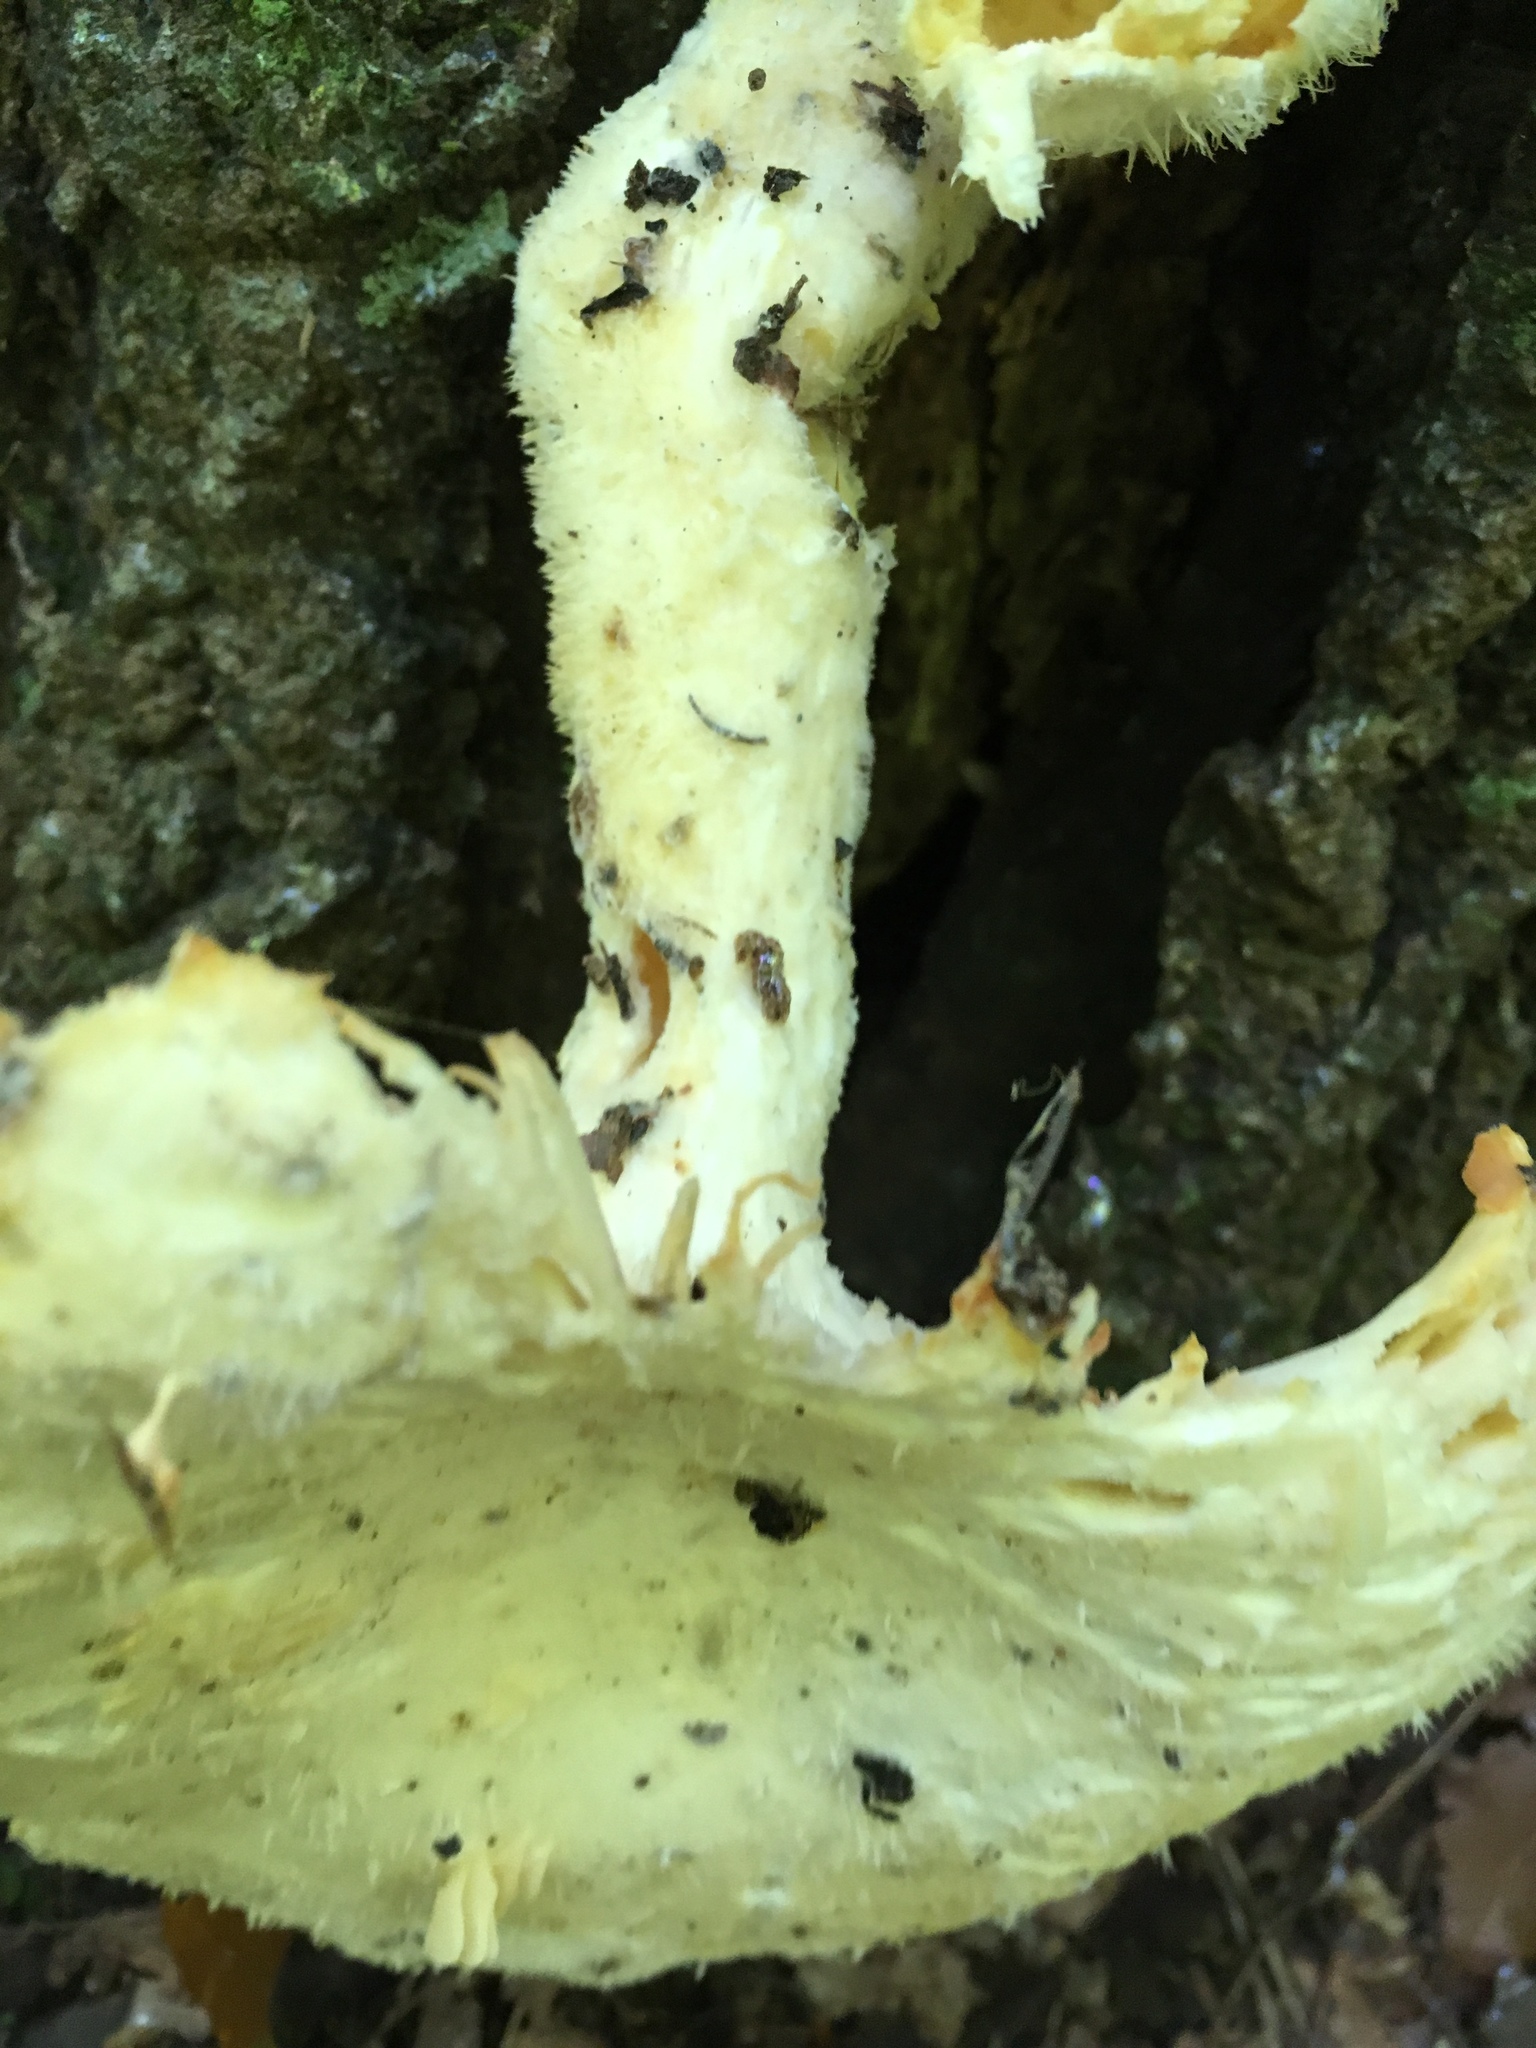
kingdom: Fungi
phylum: Basidiomycota
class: Agaricomycetes
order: Polyporales
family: Polyporaceae
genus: Lentinus
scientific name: Lentinus levis
